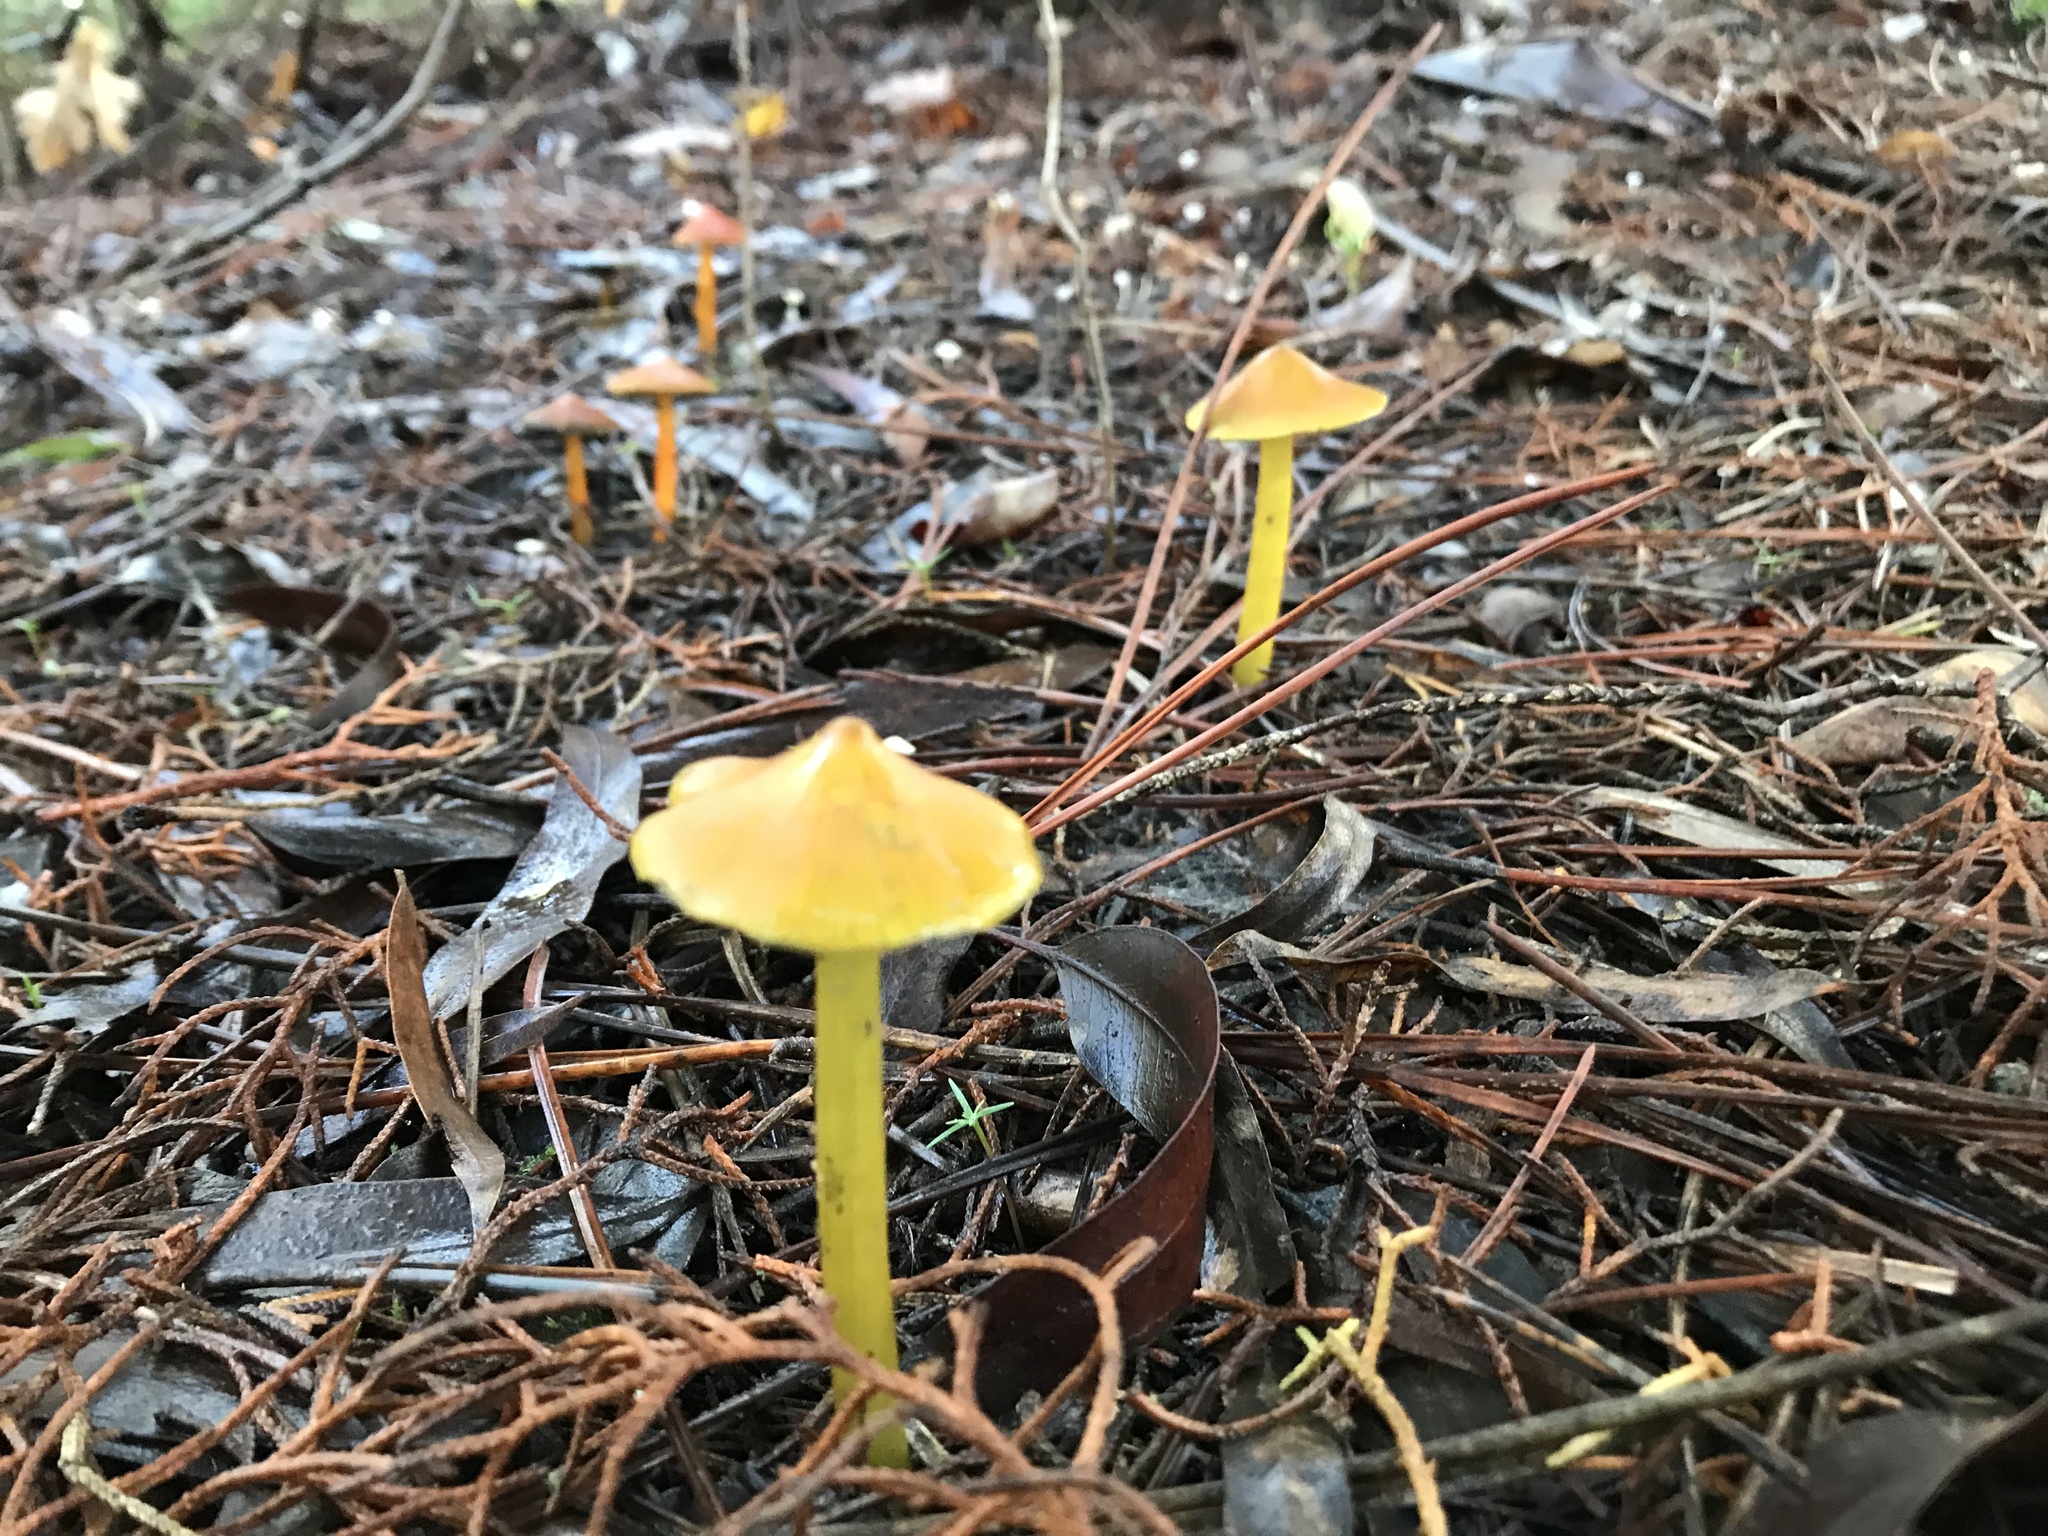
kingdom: Fungi
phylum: Basidiomycota
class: Agaricomycetes
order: Agaricales
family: Hygrophoraceae
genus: Hygrocybe
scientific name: Hygrocybe conica
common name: Blackening wax-cap
